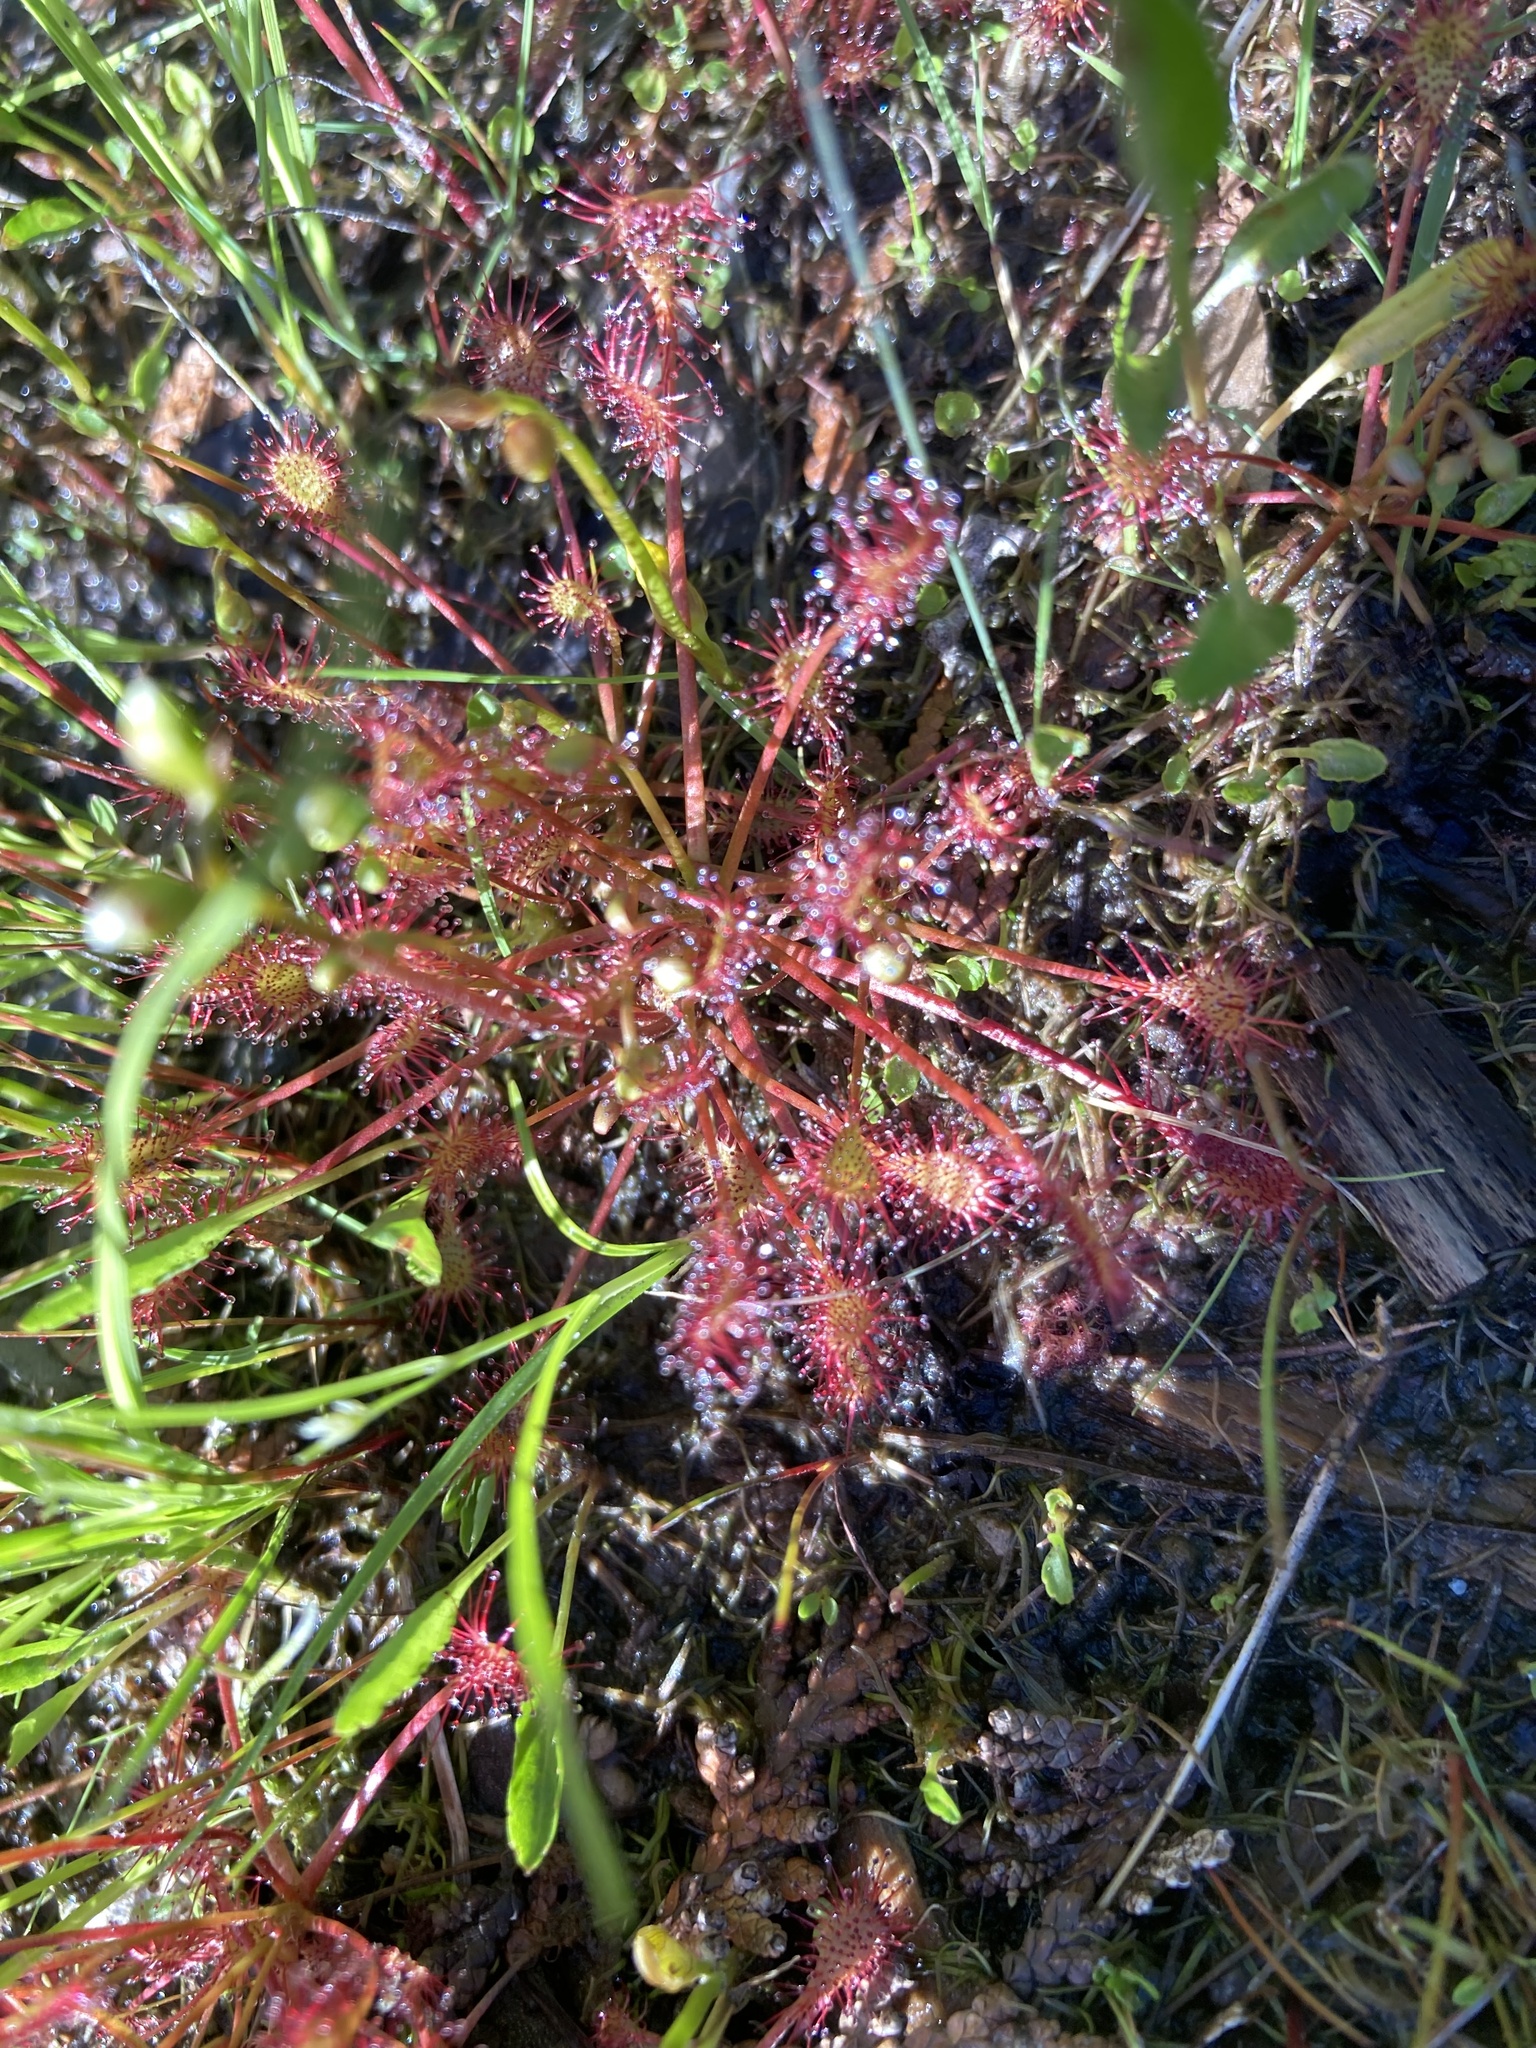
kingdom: Plantae
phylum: Tracheophyta
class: Magnoliopsida
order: Caryophyllales
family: Droseraceae
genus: Drosera
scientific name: Drosera intermedia
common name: Oblong-leaved sundew
